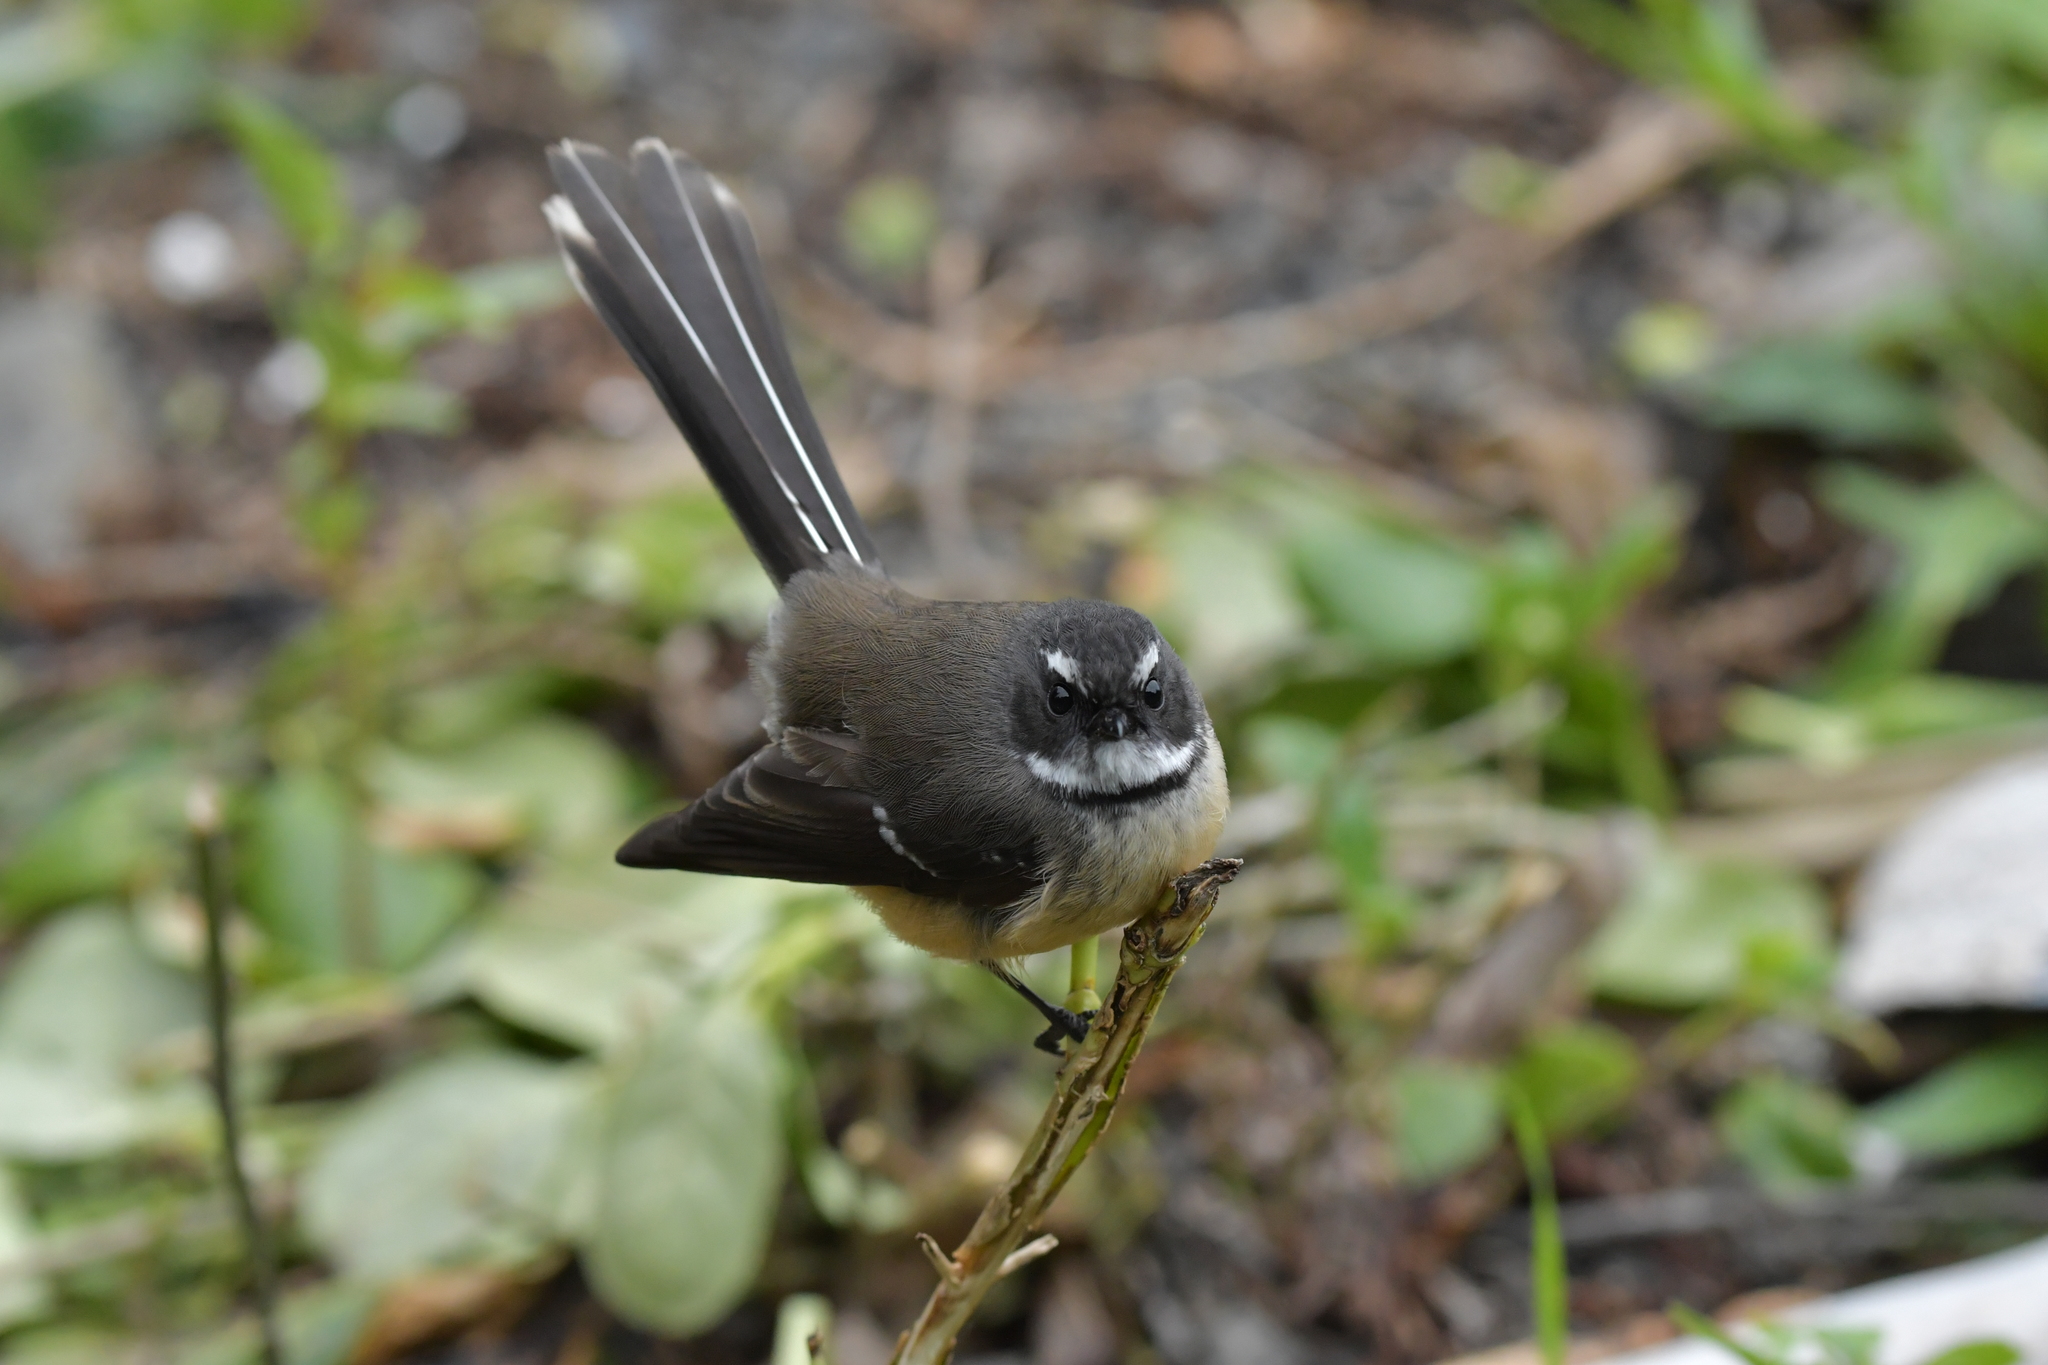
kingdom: Animalia
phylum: Chordata
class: Aves
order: Passeriformes
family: Rhipiduridae
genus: Rhipidura
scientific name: Rhipidura fuliginosa
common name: New zealand fantail
